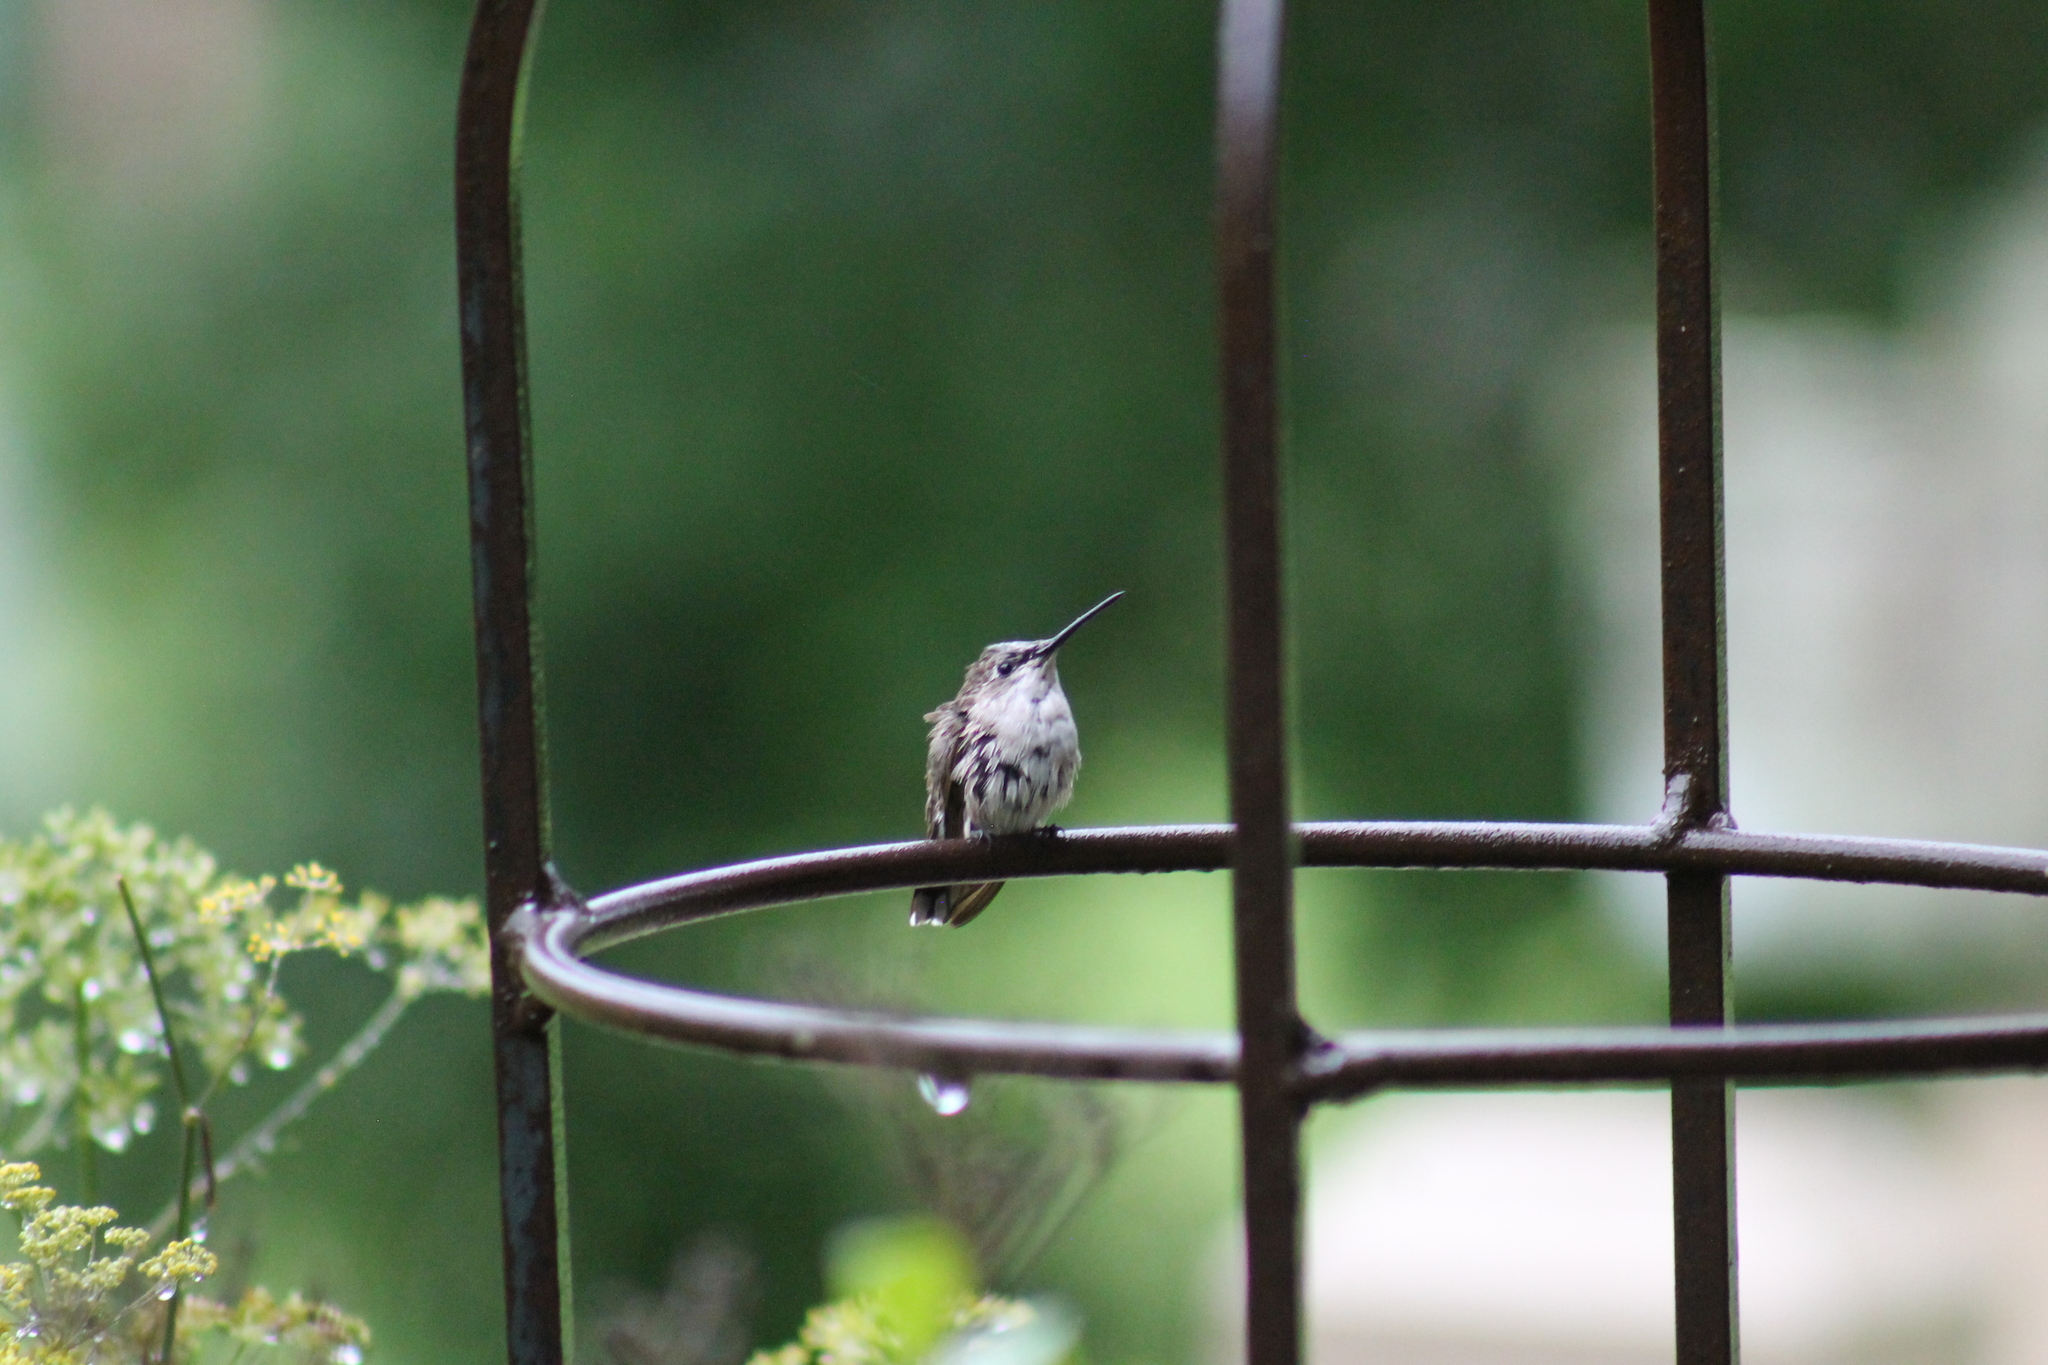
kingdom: Animalia
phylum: Chordata
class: Aves
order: Apodiformes
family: Trochilidae
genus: Archilochus
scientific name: Archilochus colubris
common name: Ruby-throated hummingbird
